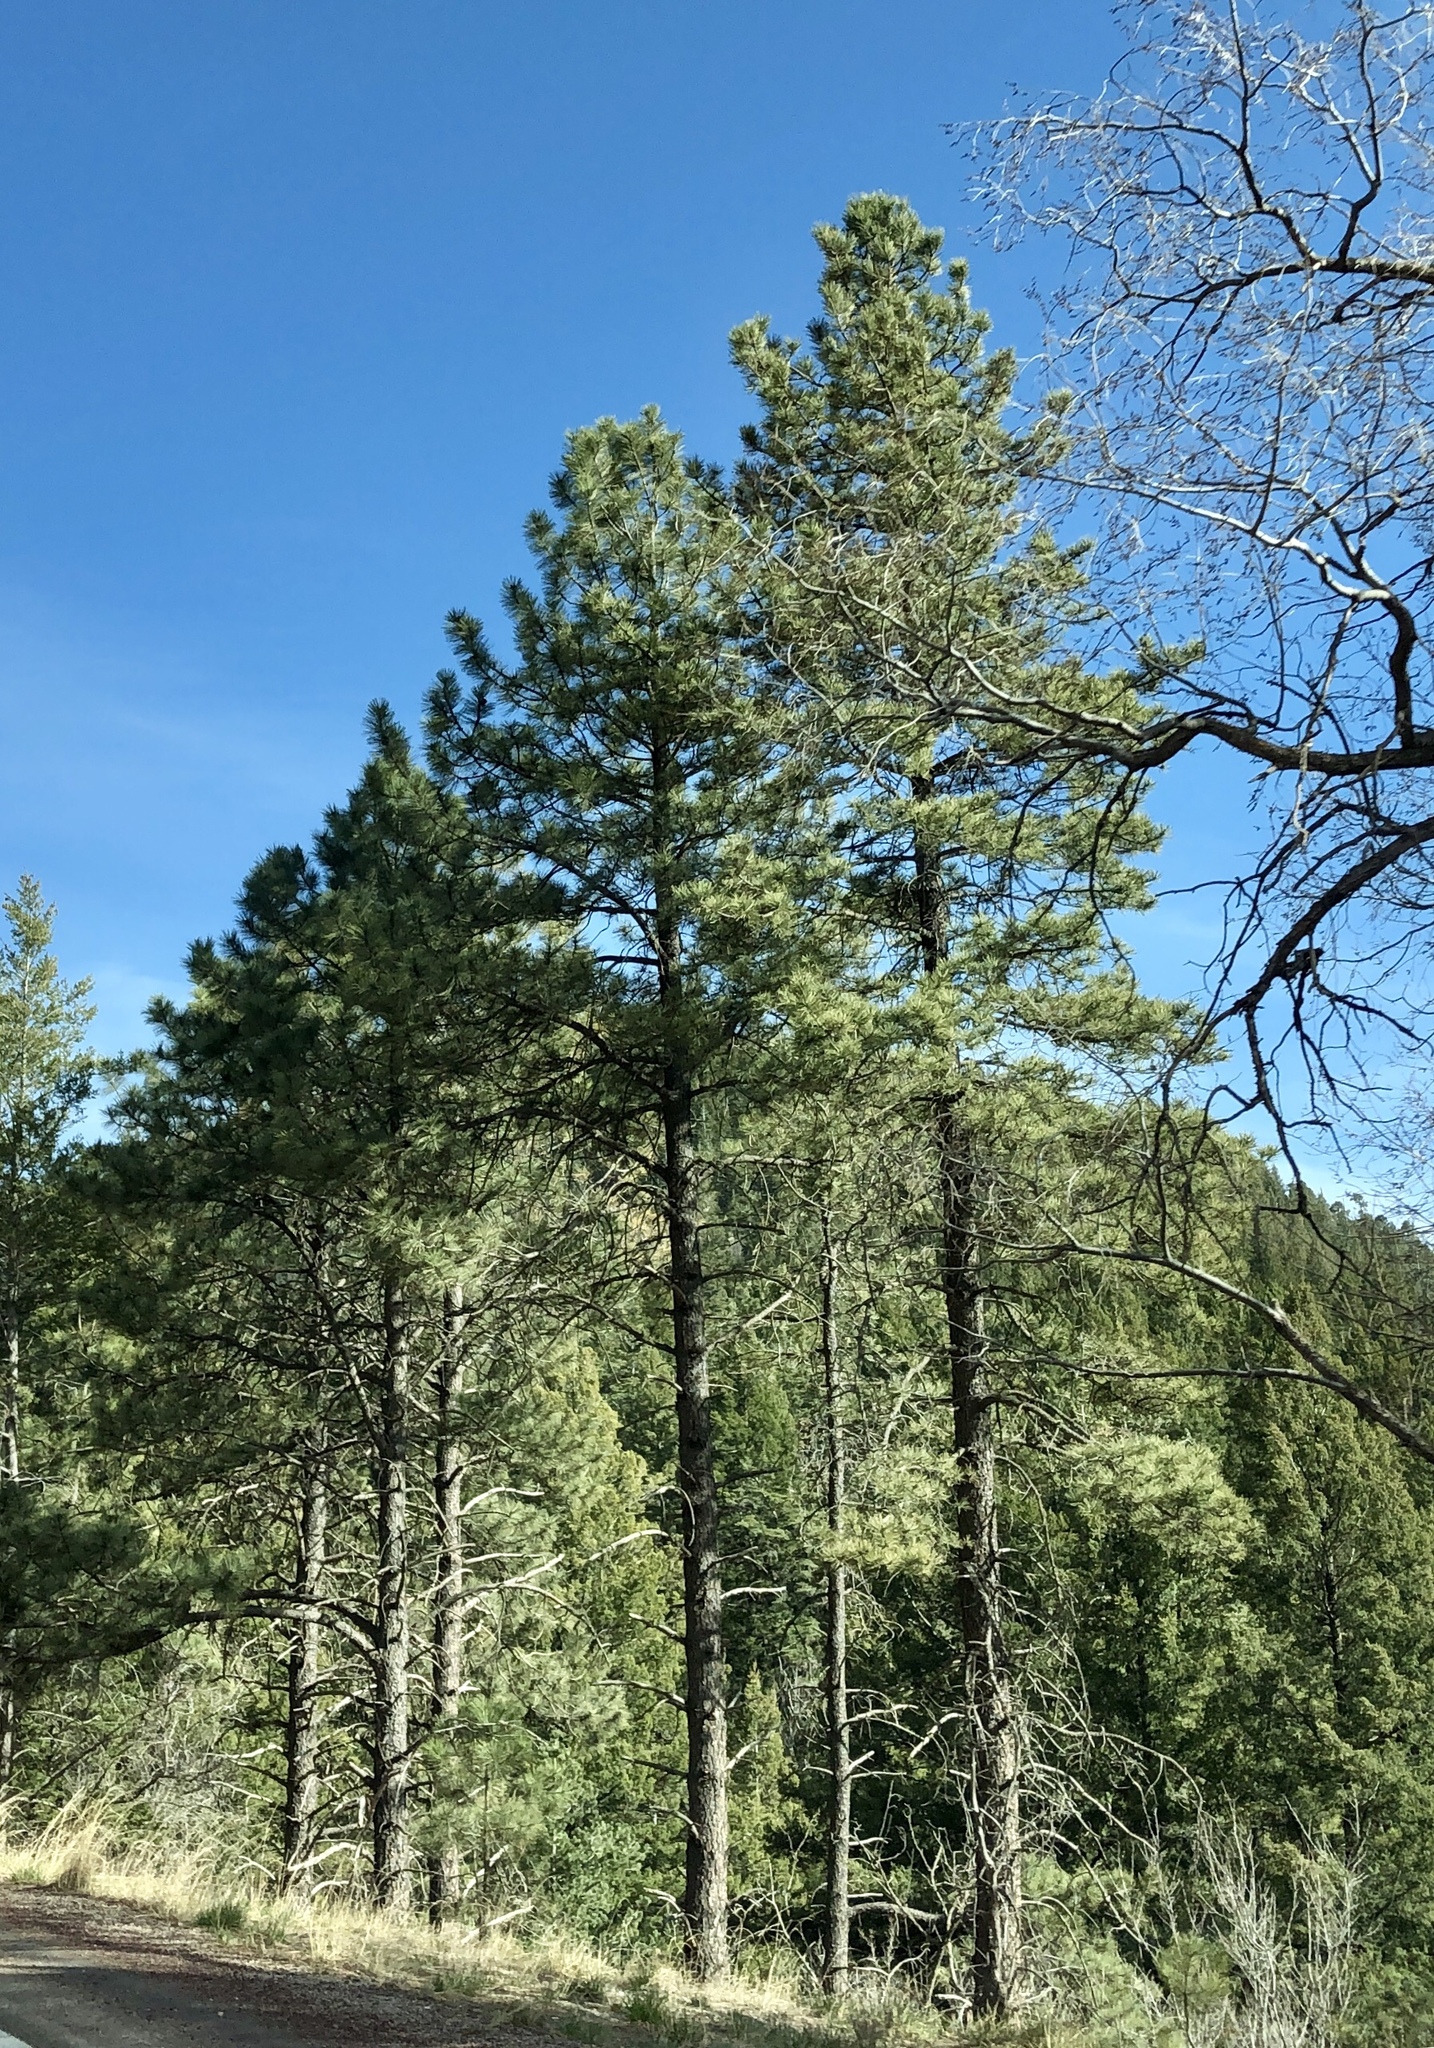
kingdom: Plantae
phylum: Tracheophyta
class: Pinopsida
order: Pinales
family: Pinaceae
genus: Pinus
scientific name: Pinus ponderosa
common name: Western yellow-pine
